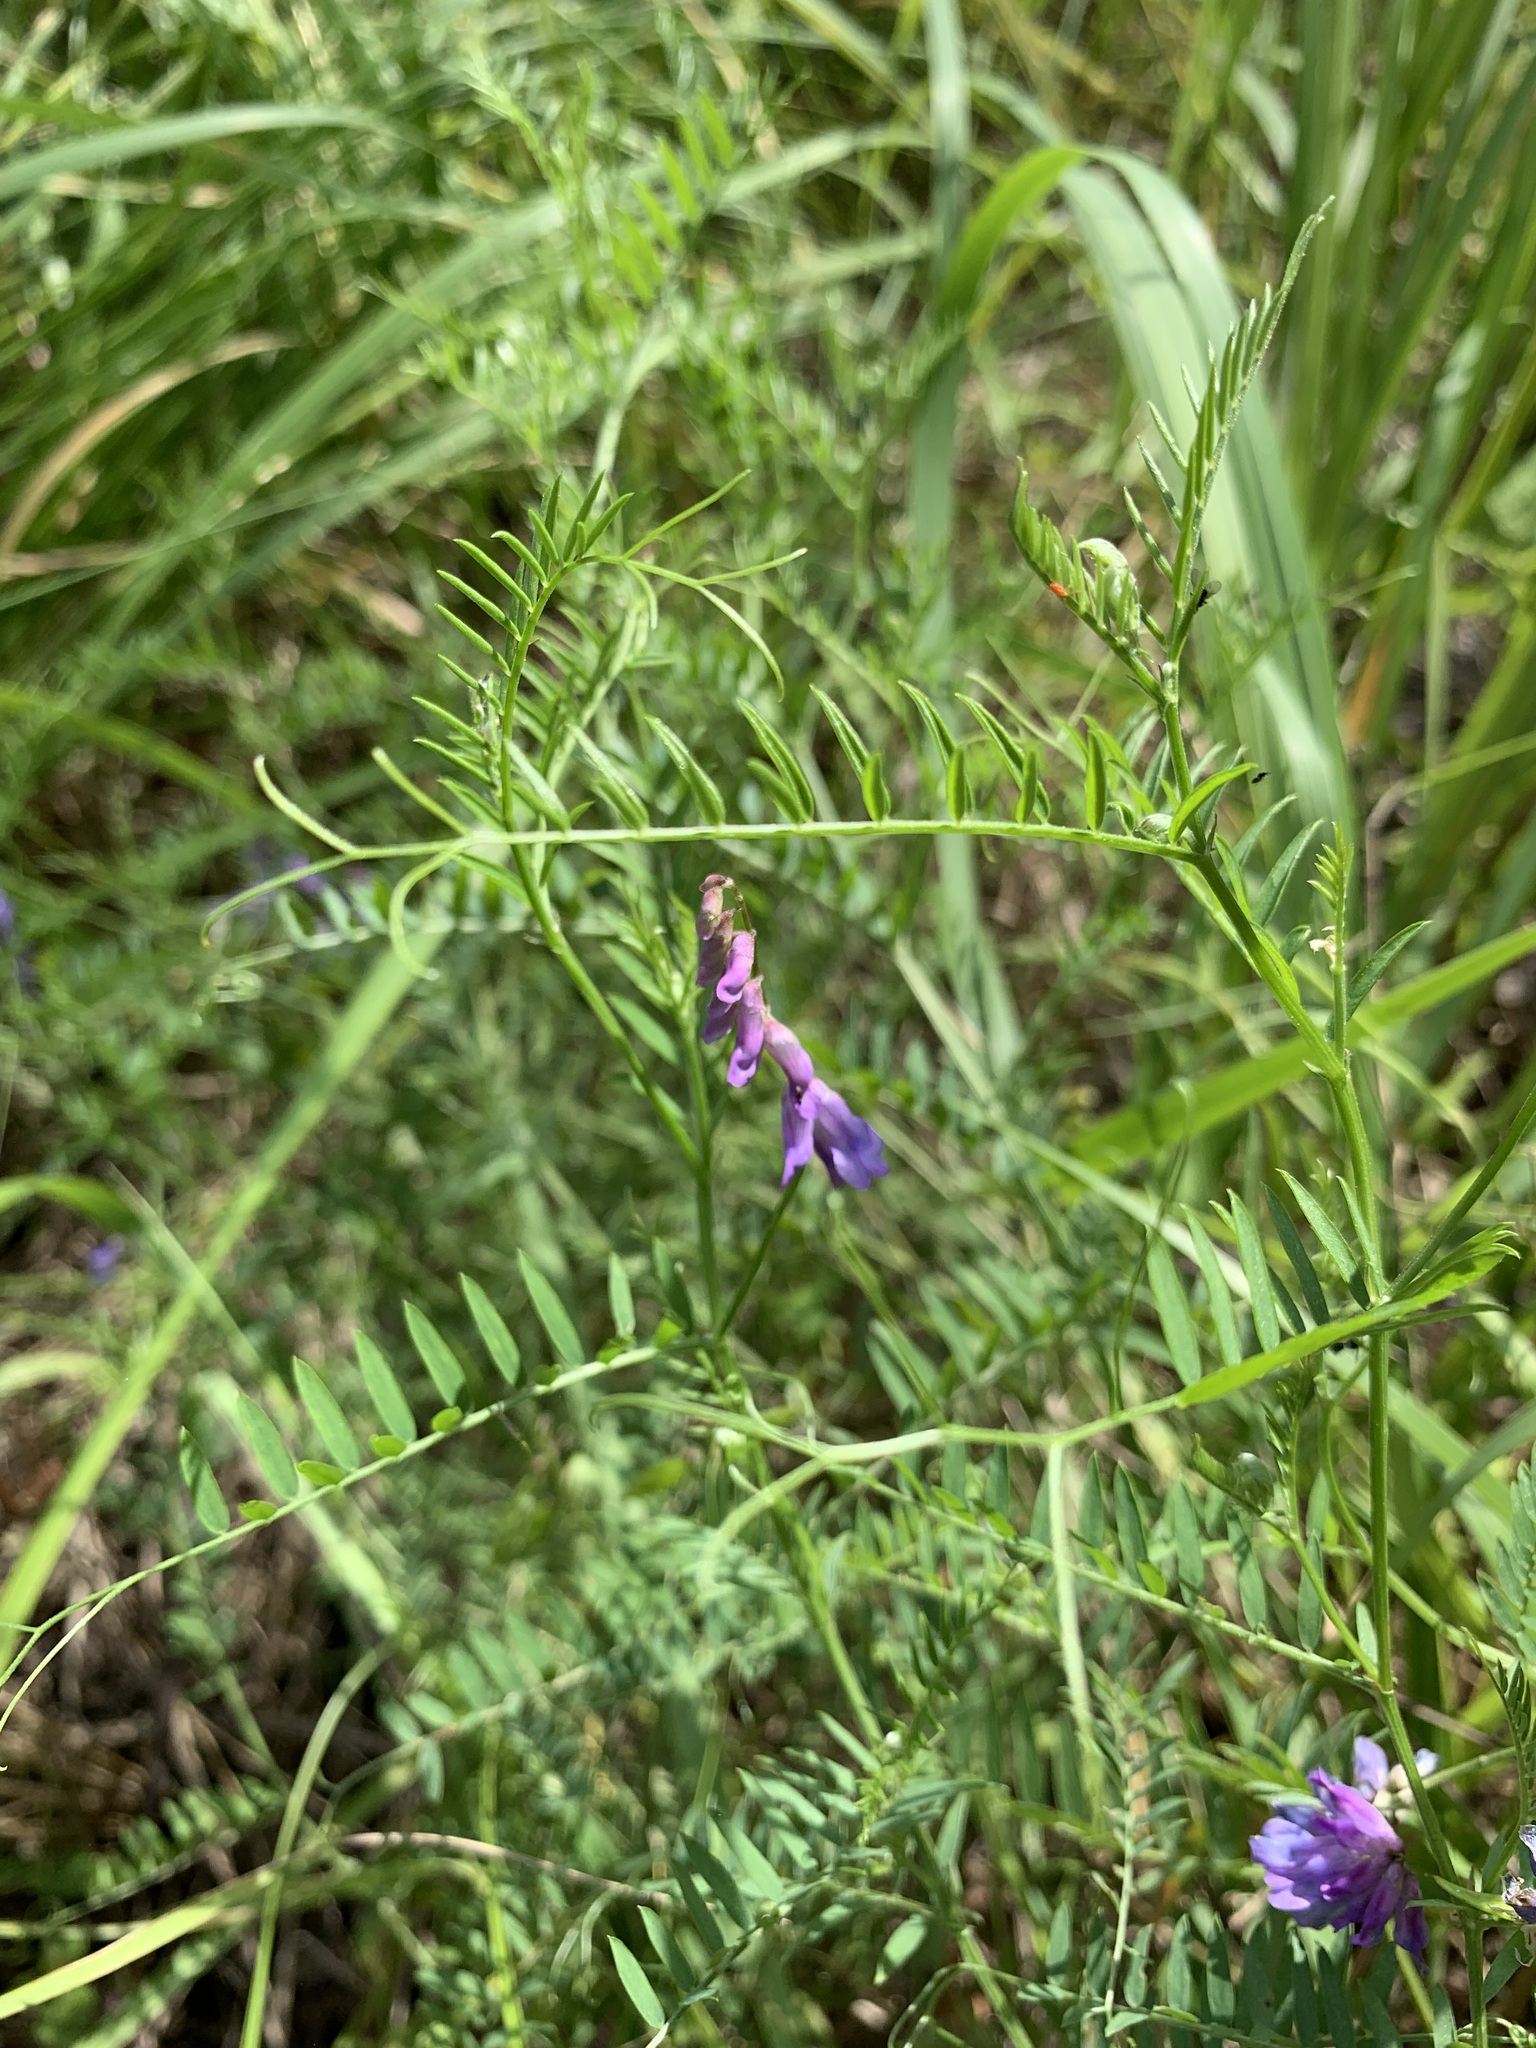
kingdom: Plantae
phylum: Tracheophyta
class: Magnoliopsida
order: Fabales
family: Fabaceae
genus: Vicia
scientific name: Vicia cracca
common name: Bird vetch
